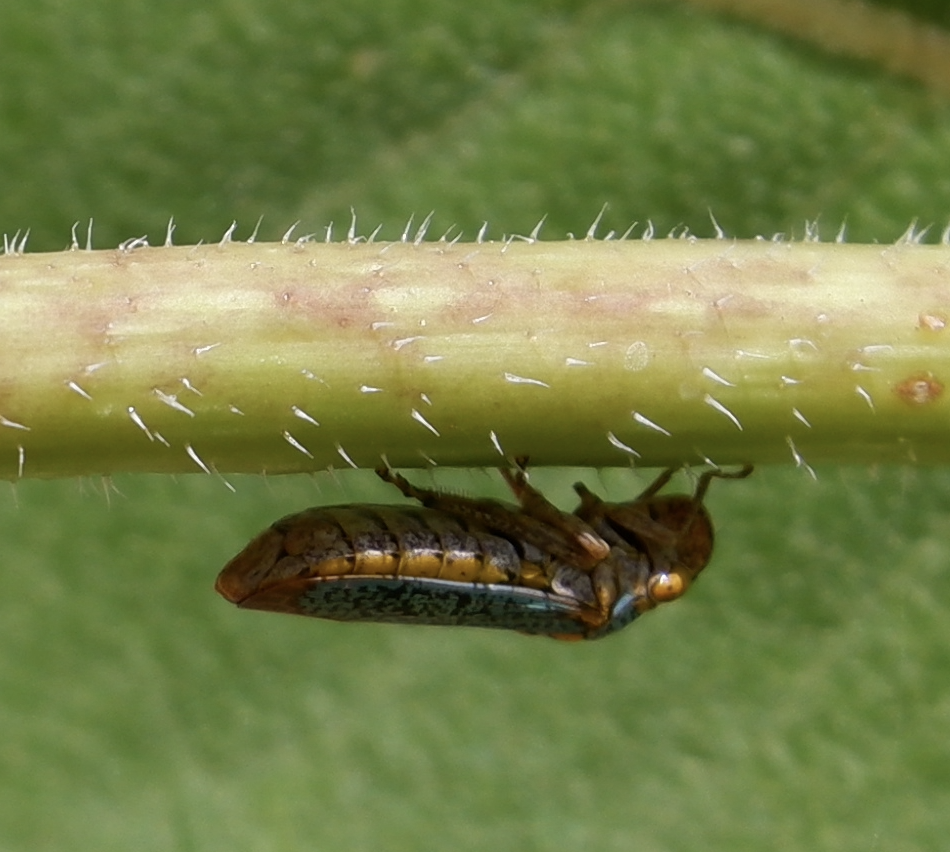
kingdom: Animalia
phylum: Arthropoda
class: Insecta
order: Hemiptera
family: Cicadellidae
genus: Oncometopia
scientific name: Oncometopia orbona
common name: Broad-headed sharpshooter
